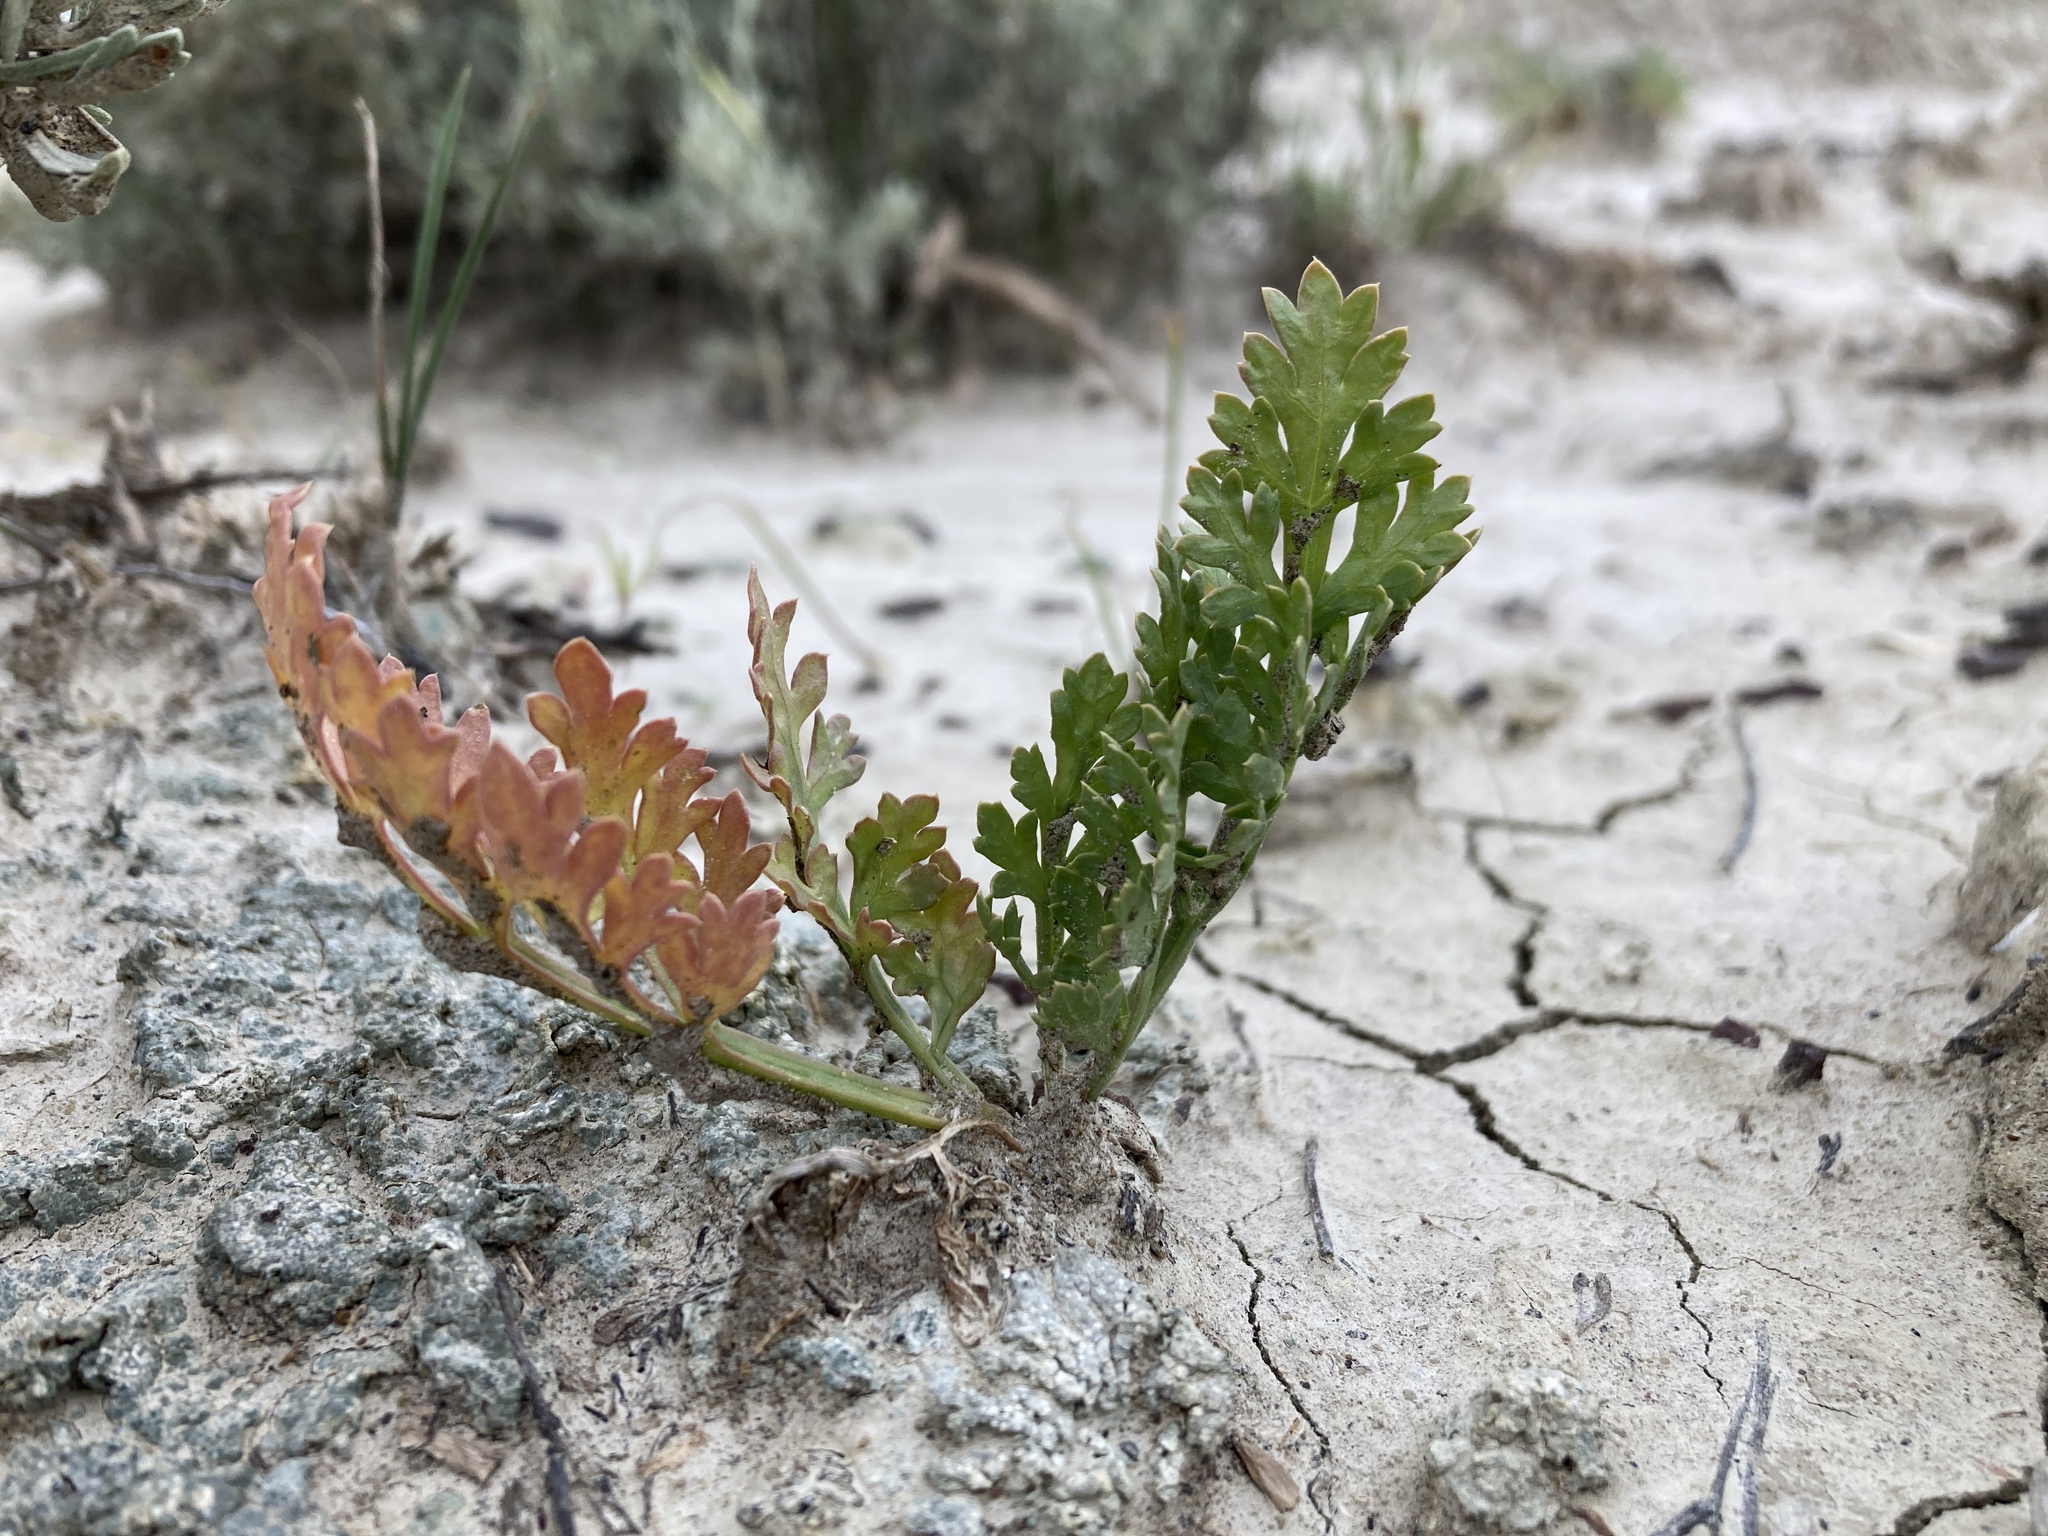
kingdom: Plantae
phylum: Tracheophyta
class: Magnoliopsida
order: Apiales
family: Apiaceae
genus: Musineon
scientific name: Musineon divaricatum
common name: Plains musineon
